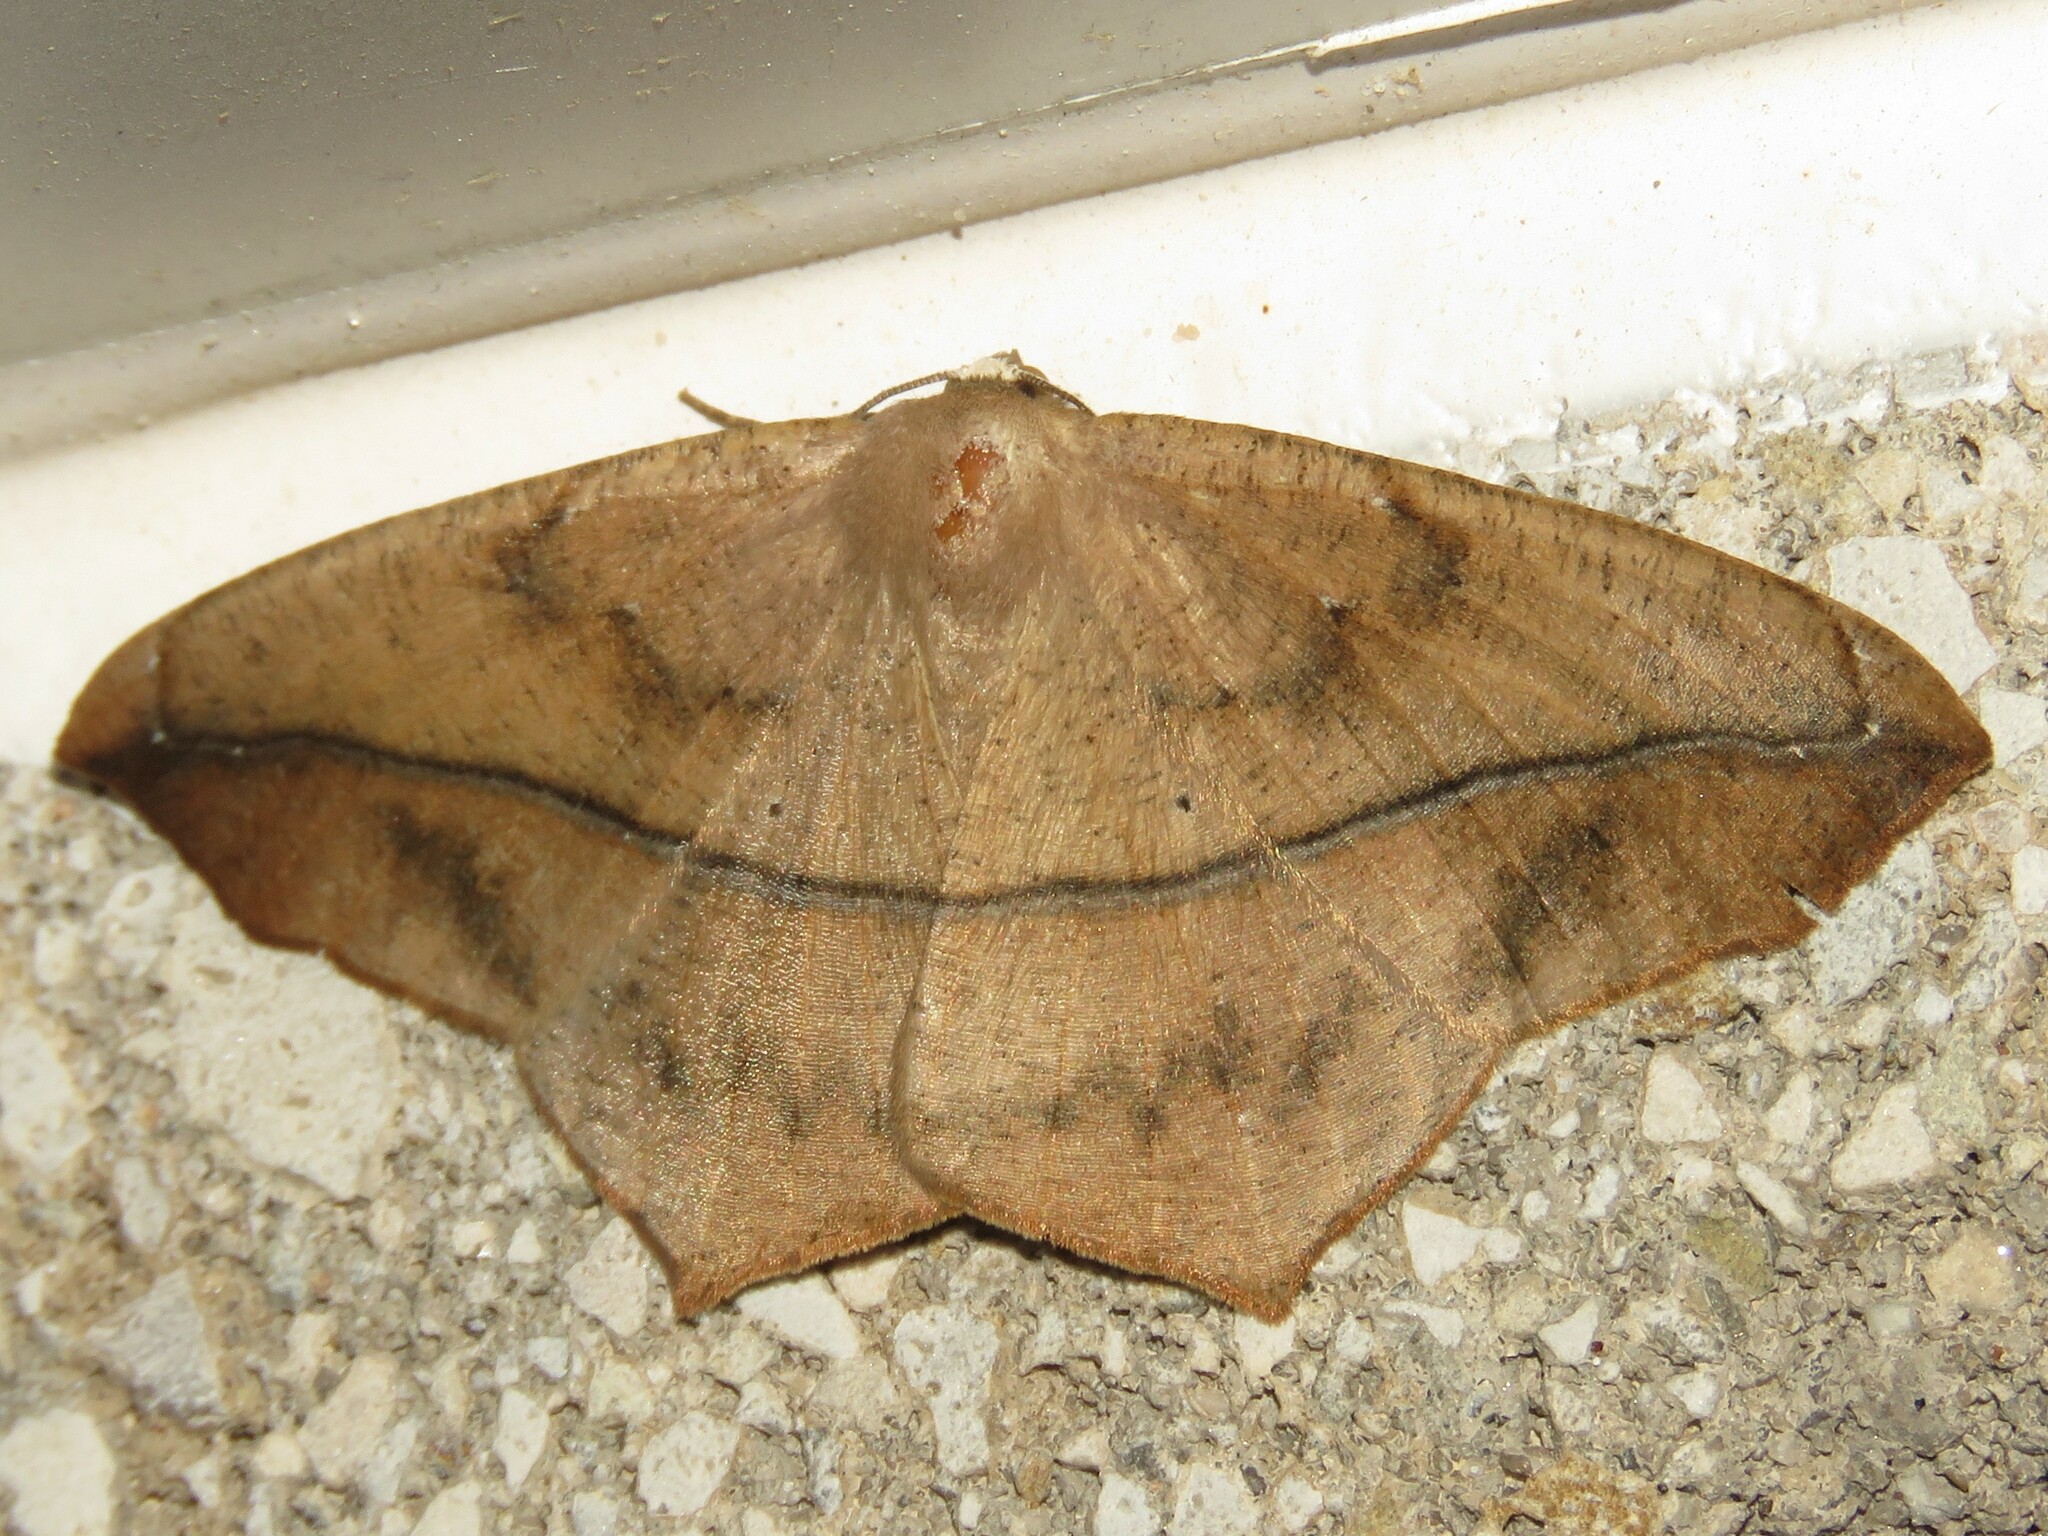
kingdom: Animalia
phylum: Arthropoda
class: Insecta
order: Lepidoptera
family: Geometridae
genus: Prochoerodes
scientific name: Prochoerodes lineola
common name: Large maple spanworm
